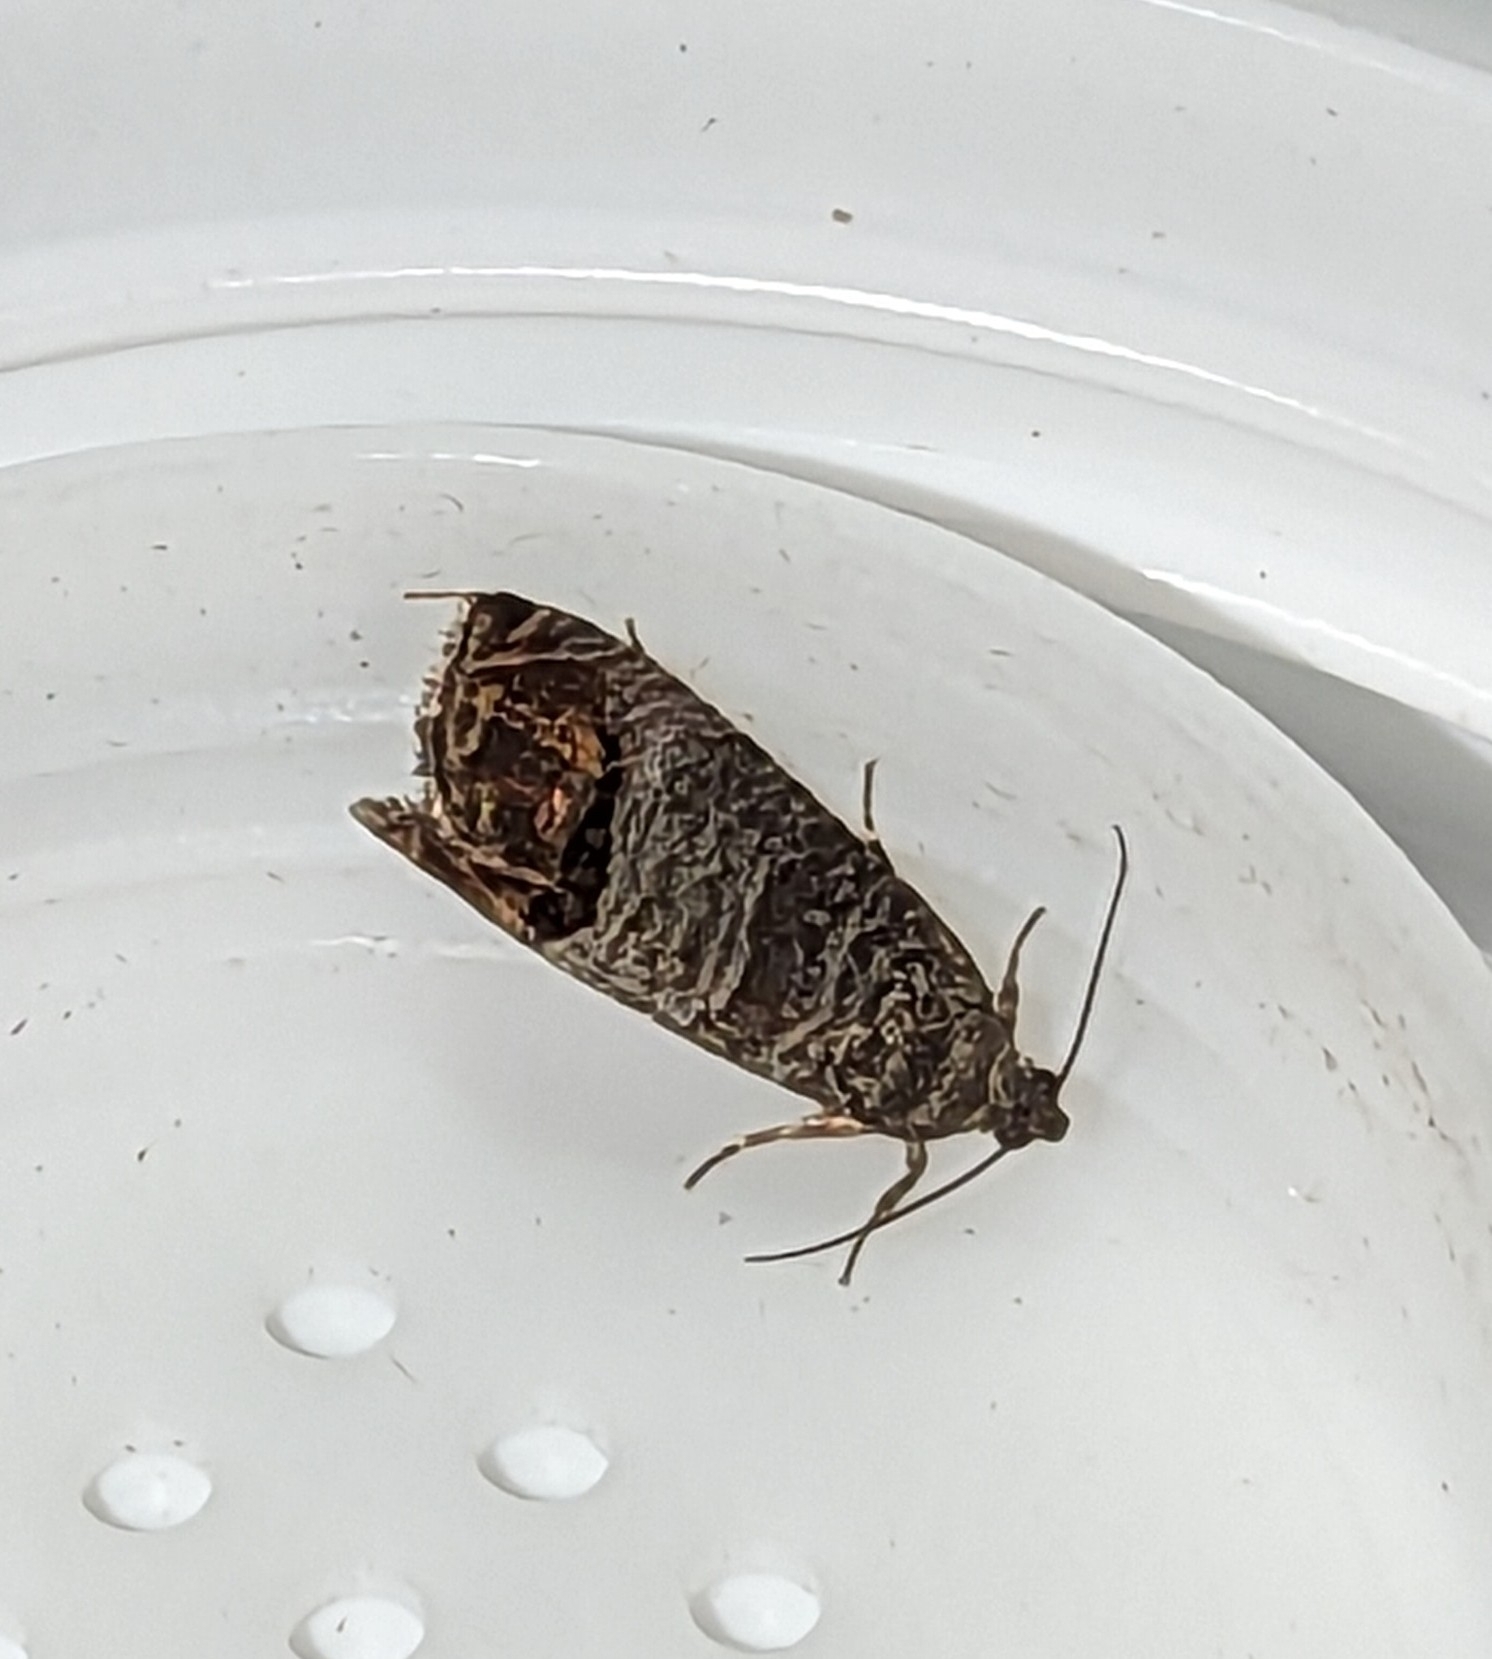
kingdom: Animalia
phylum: Arthropoda
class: Insecta
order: Lepidoptera
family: Tortricidae
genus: Cydia
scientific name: Cydia pomonella
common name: Codling moth
